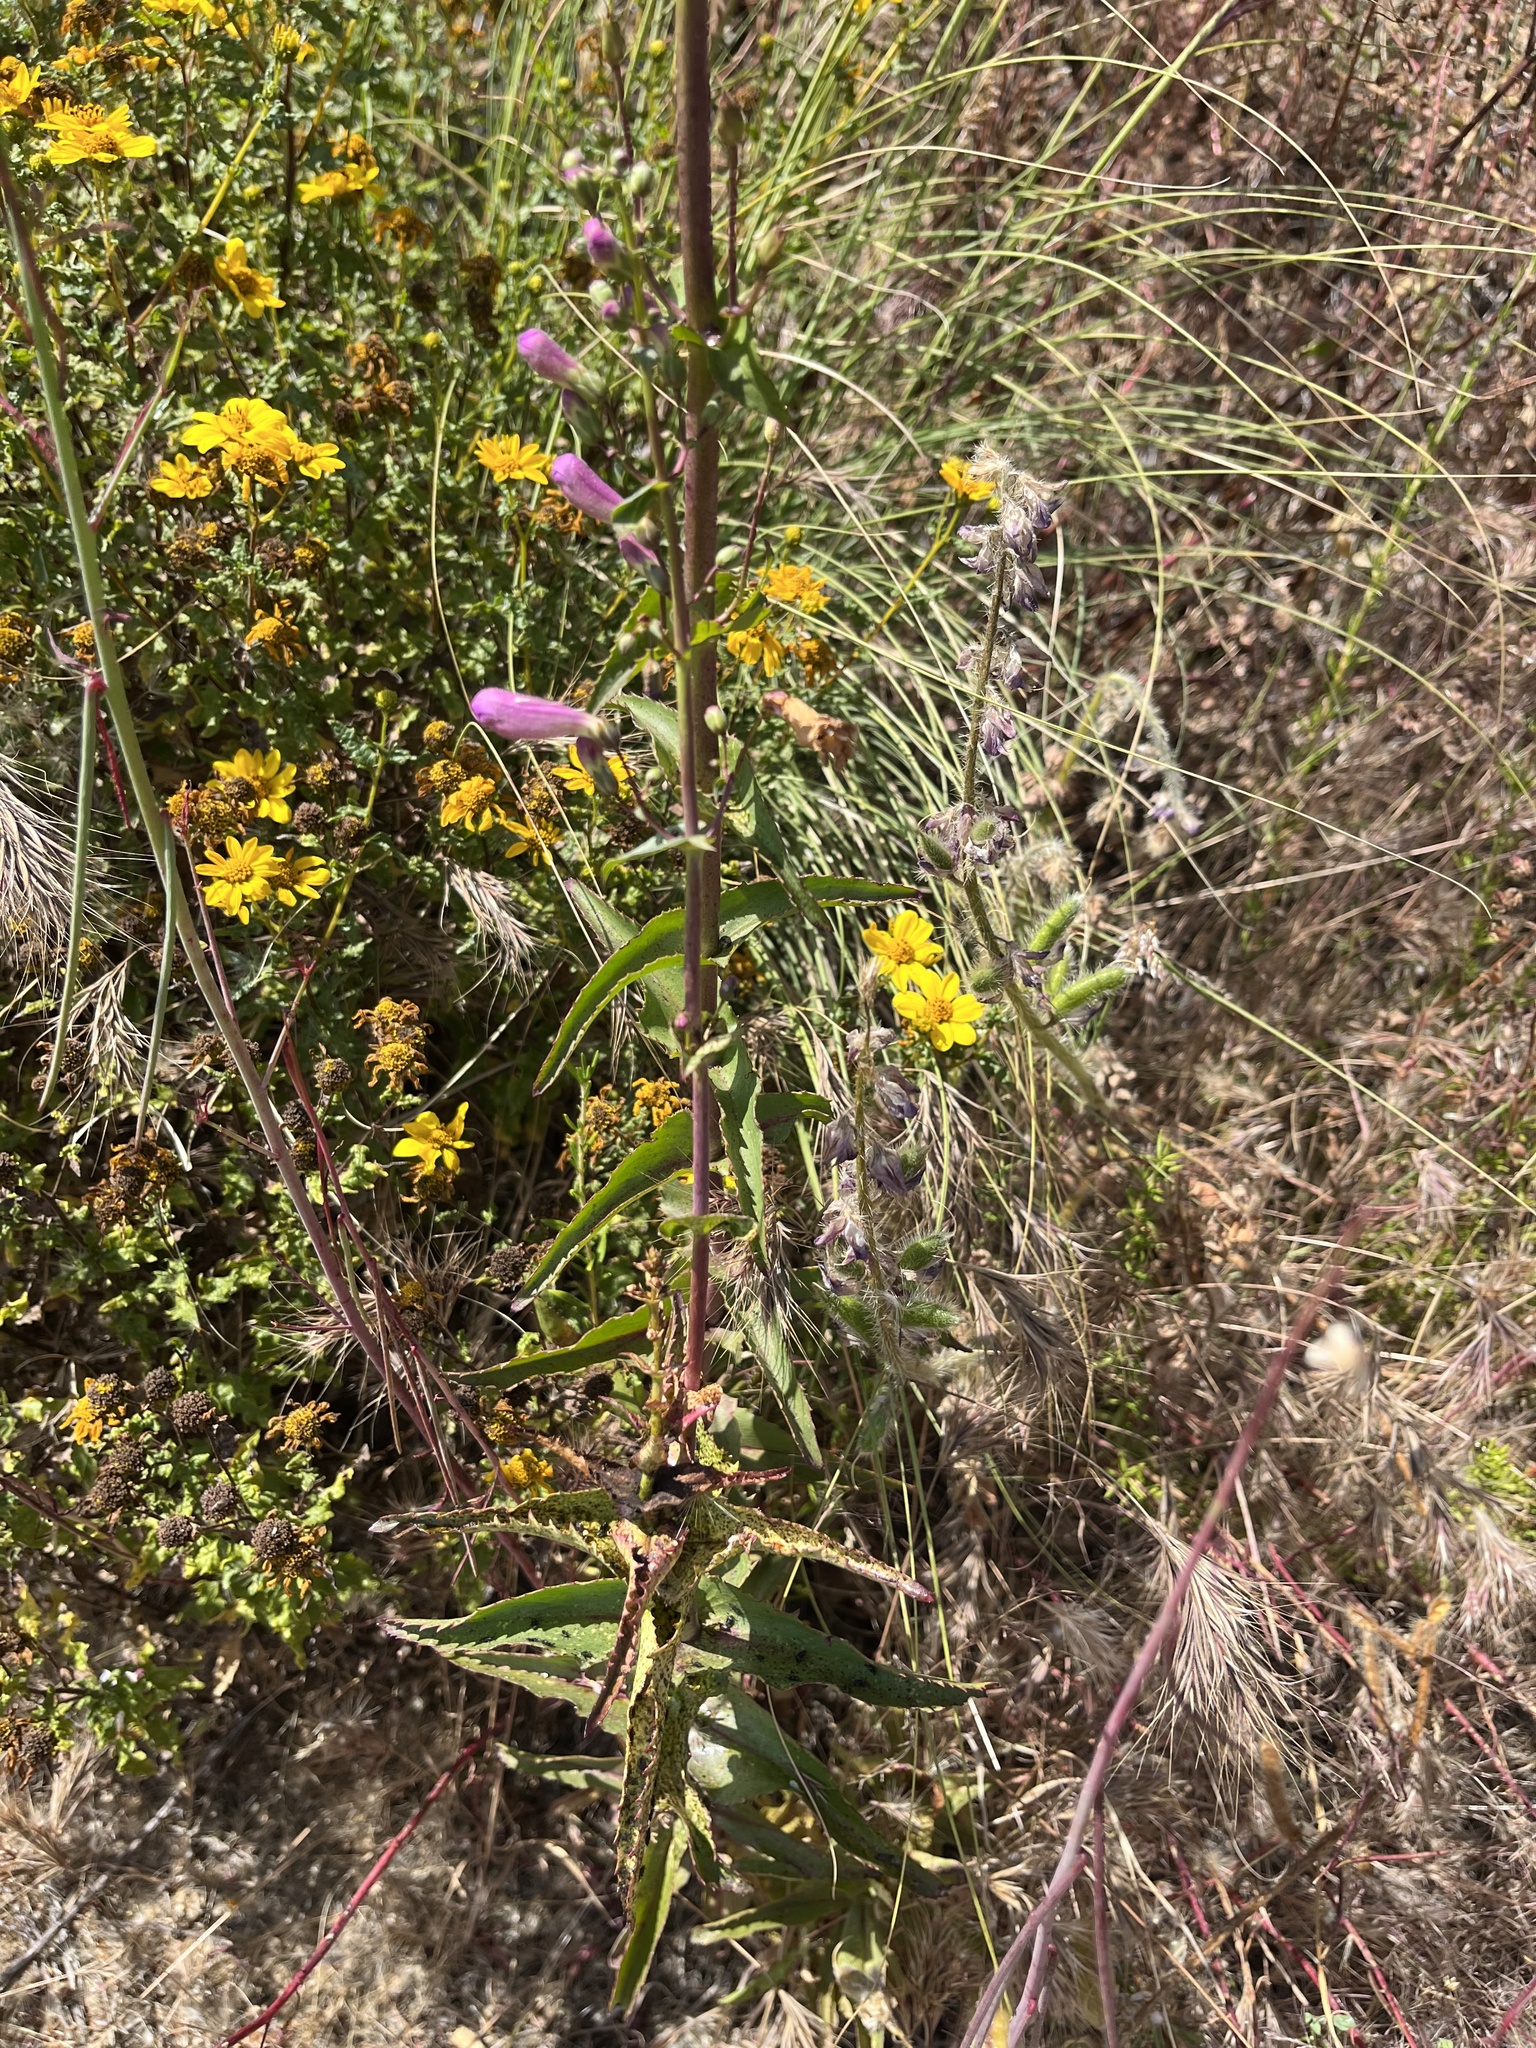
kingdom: Plantae
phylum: Tracheophyta
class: Magnoliopsida
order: Lamiales
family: Plantaginaceae
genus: Penstemon
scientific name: Penstemon spectabilis
